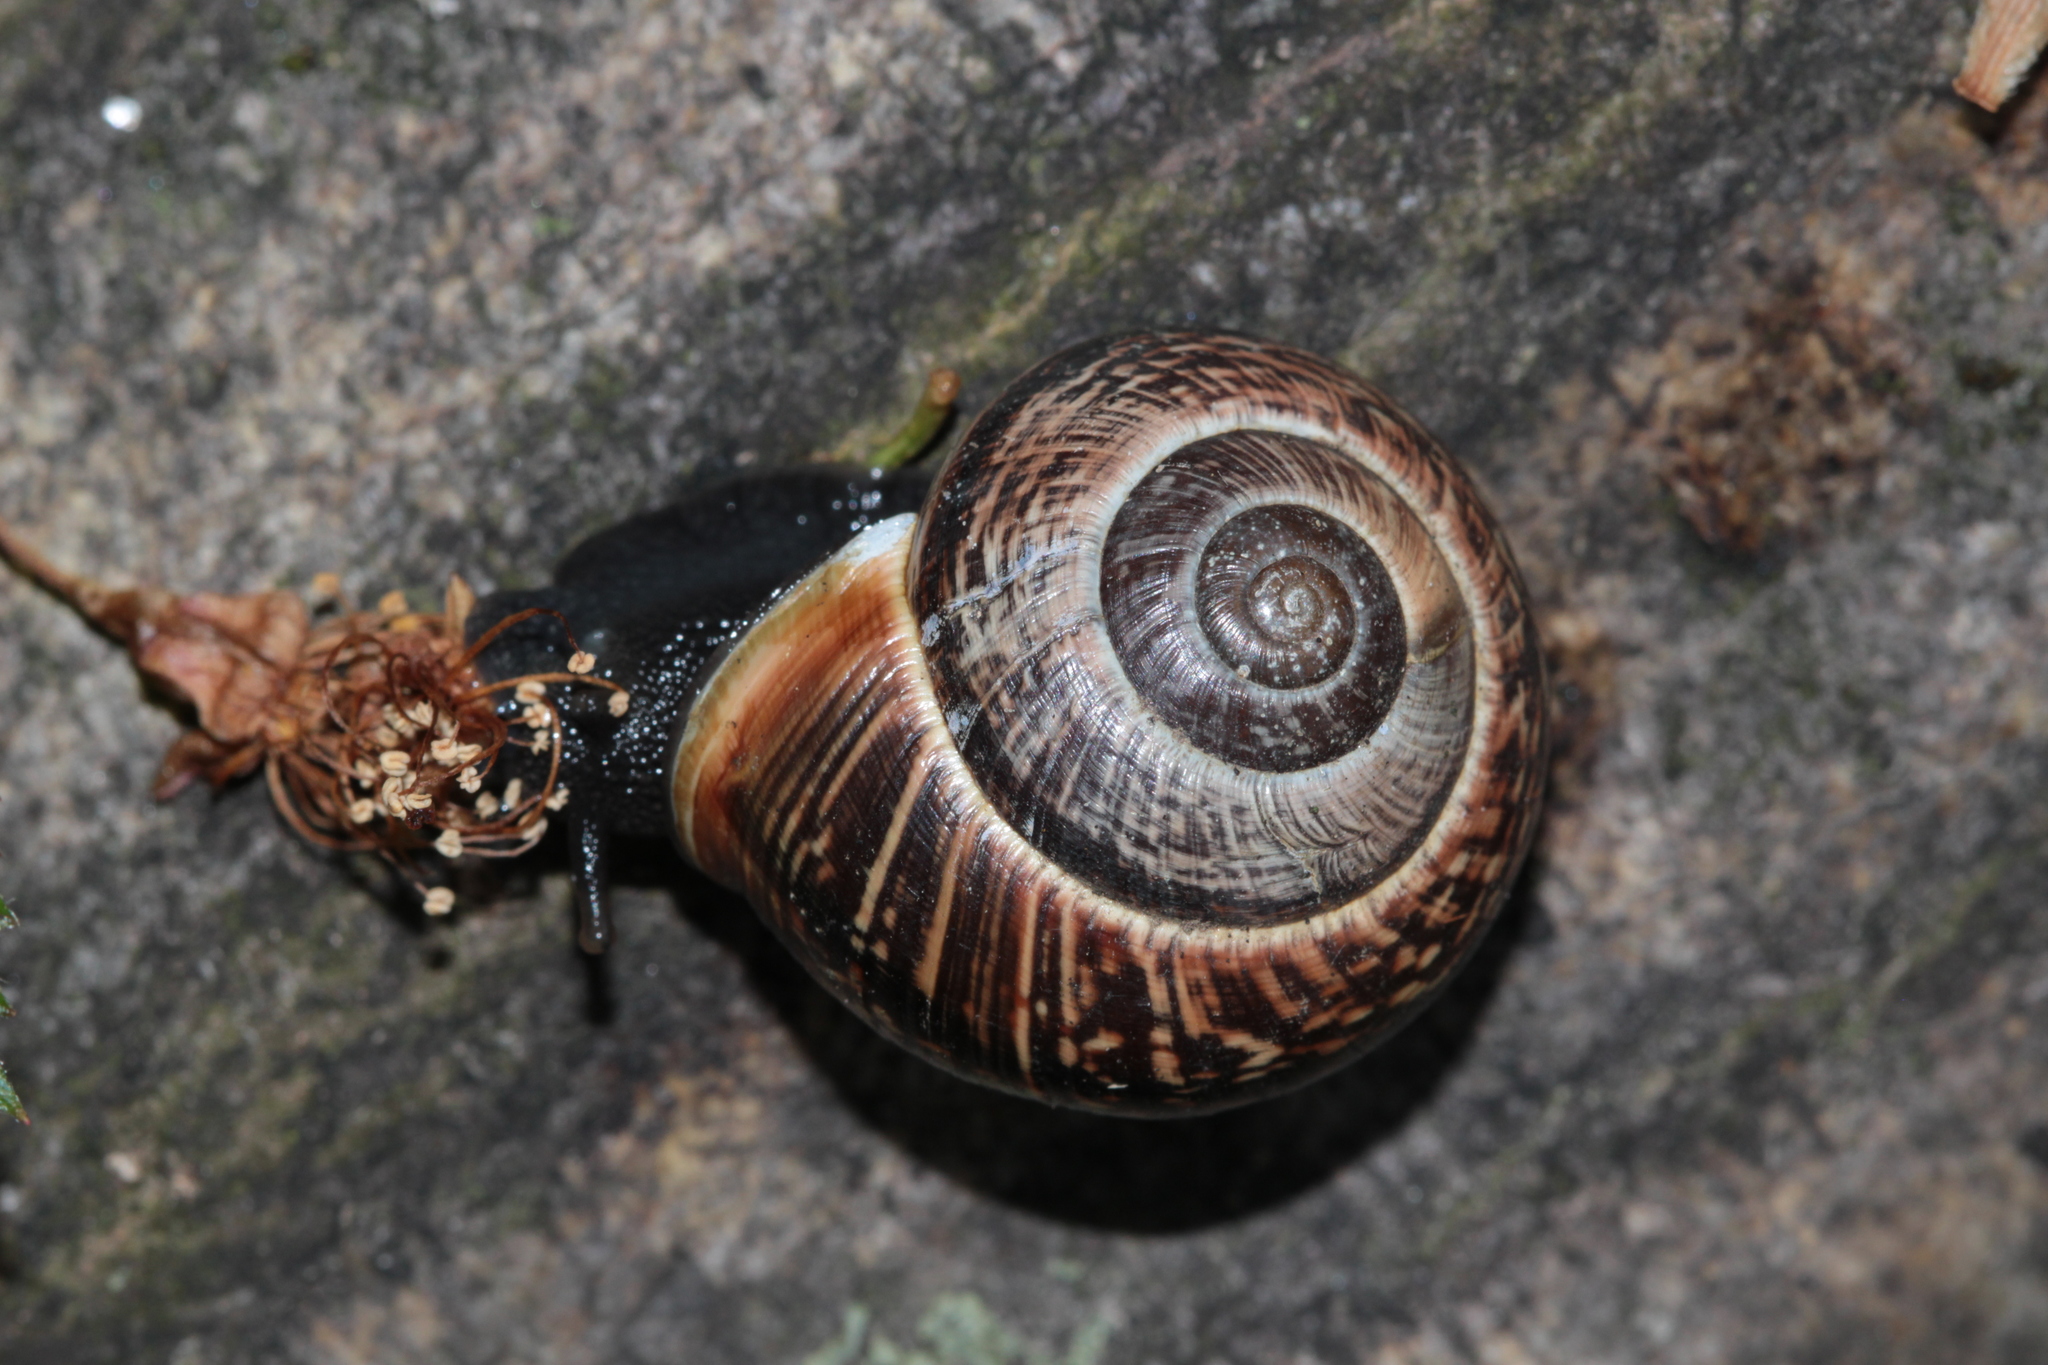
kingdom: Animalia
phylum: Mollusca
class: Gastropoda
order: Stylommatophora
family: Helicidae
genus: Arianta
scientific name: Arianta arbustorum
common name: Copse snail
